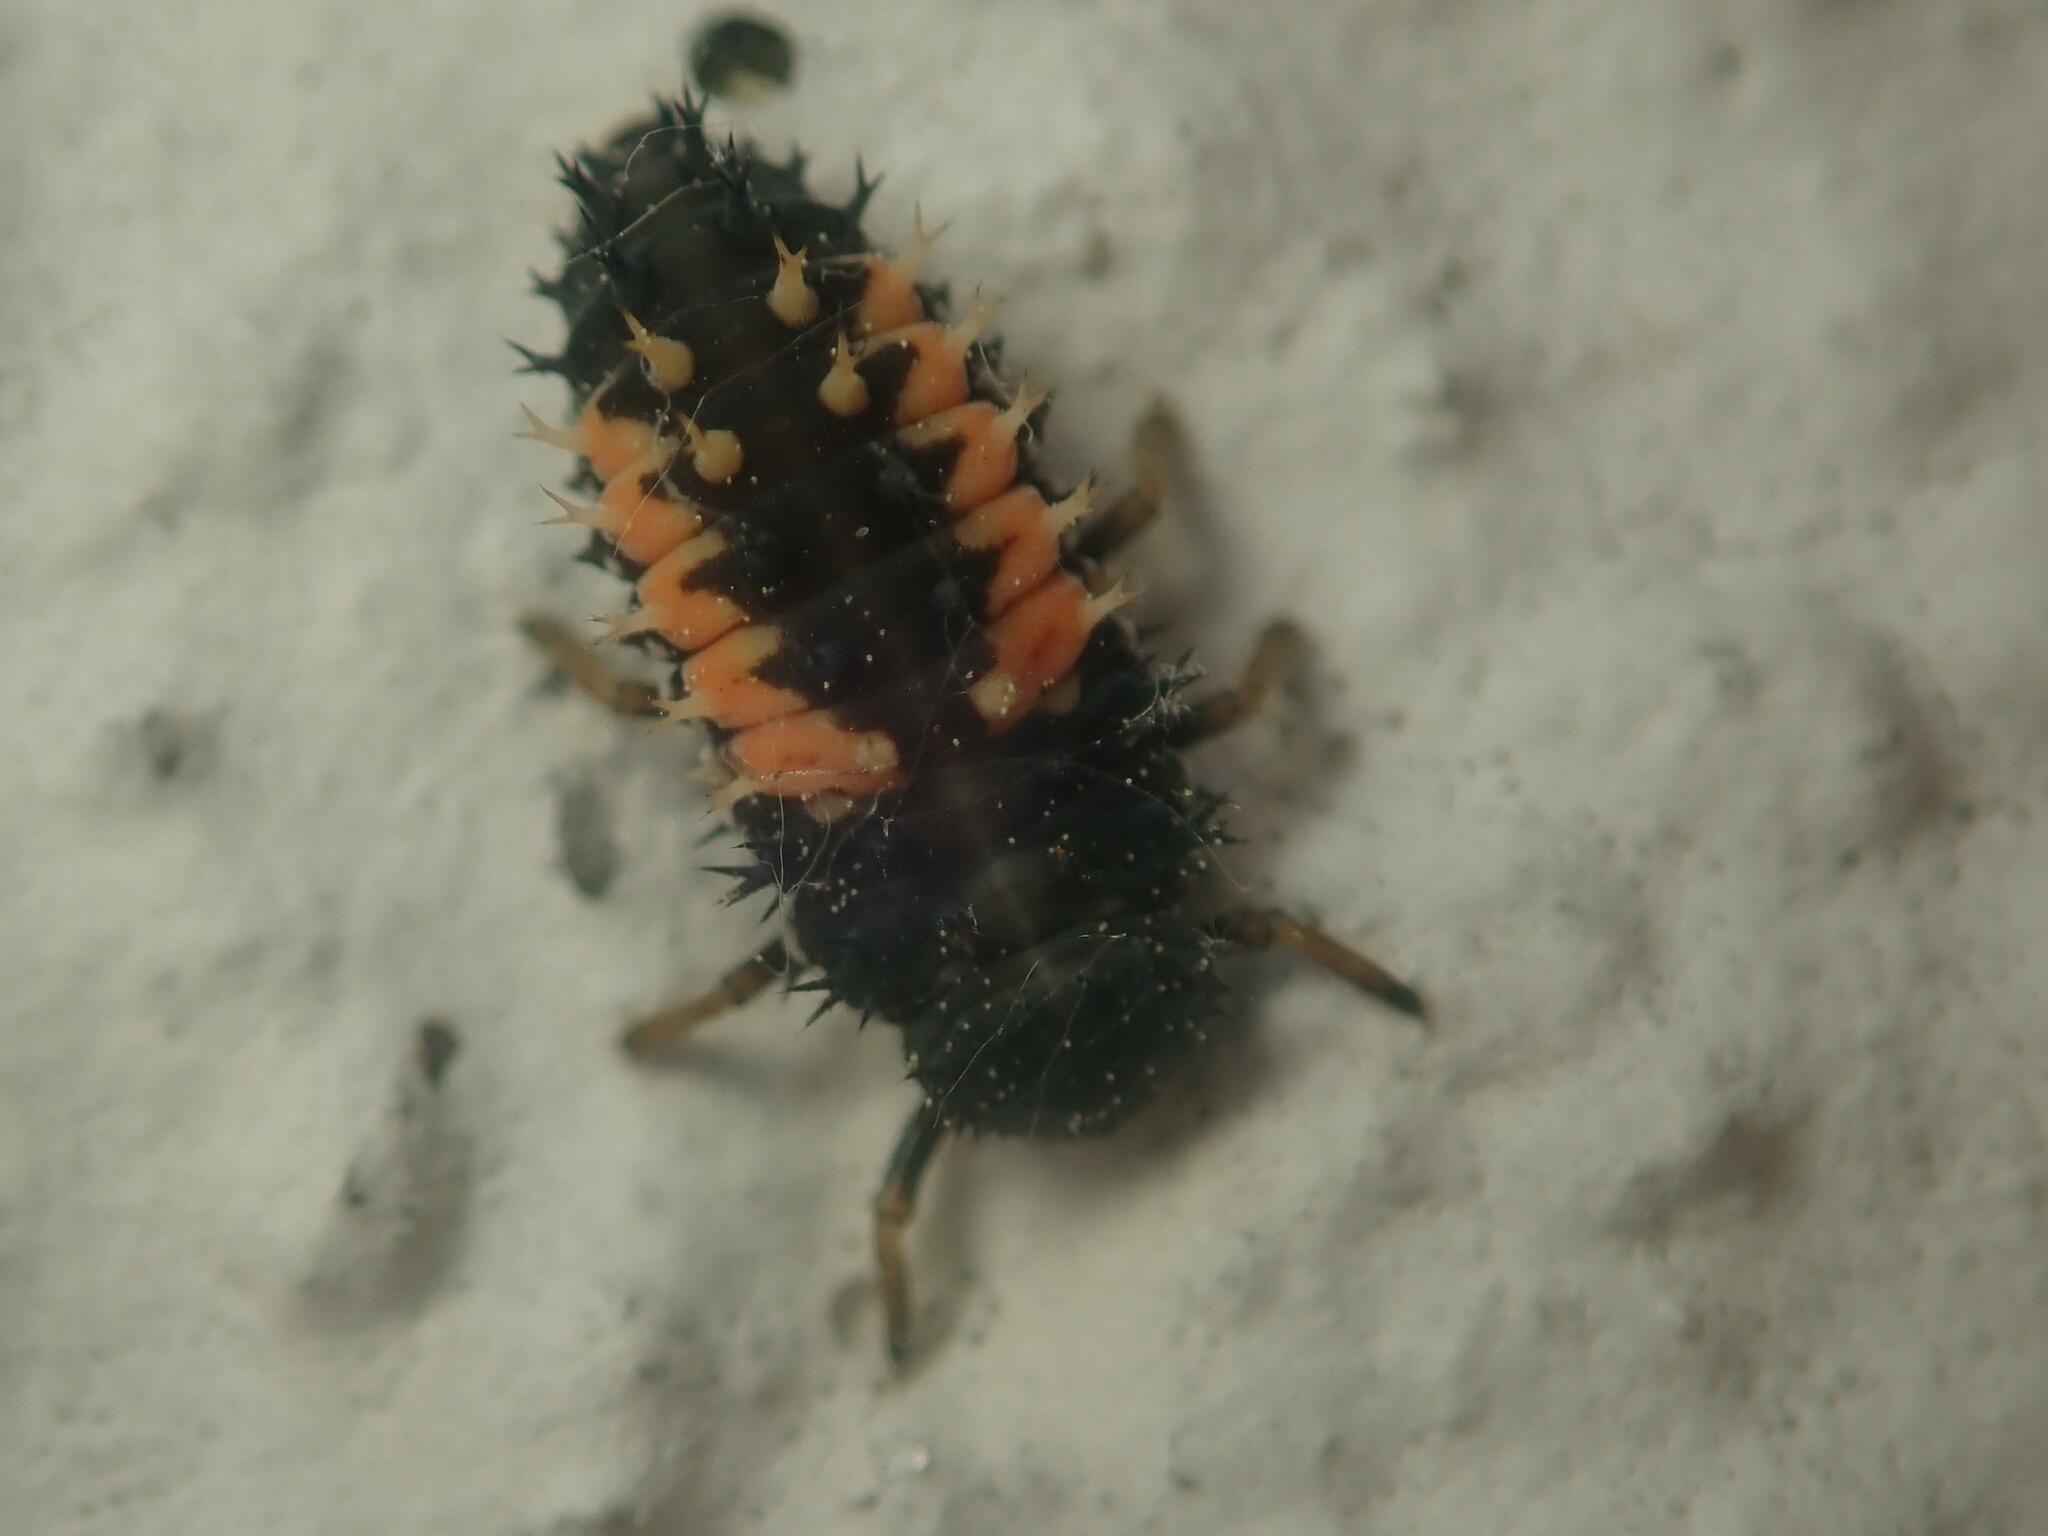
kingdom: Animalia
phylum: Arthropoda
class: Insecta
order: Coleoptera
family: Coccinellidae
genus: Harmonia
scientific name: Harmonia axyridis
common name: Harlequin ladybird
